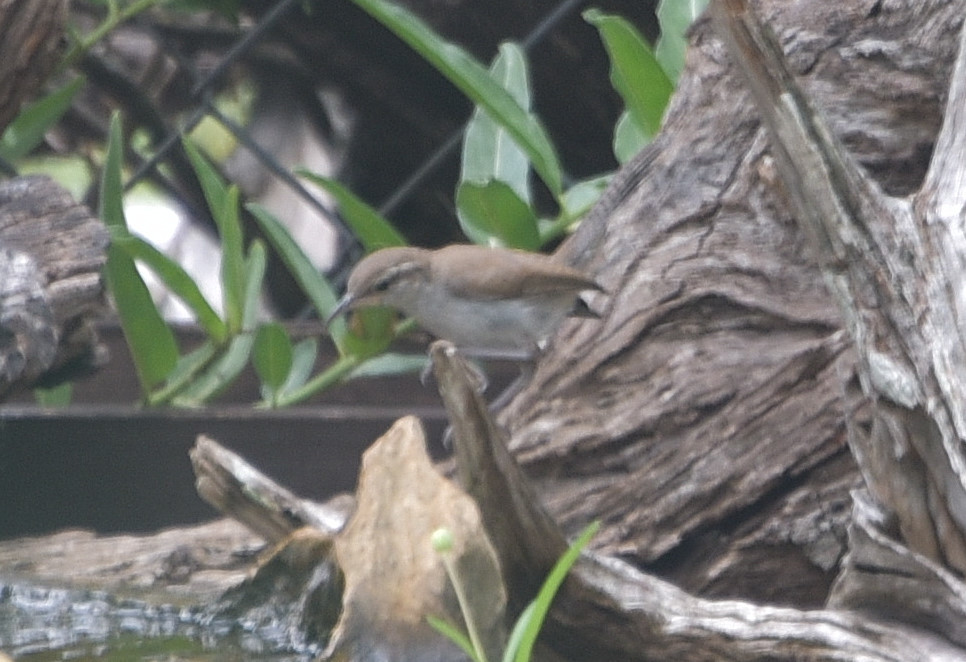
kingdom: Animalia
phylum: Chordata
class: Aves
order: Passeriformes
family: Troglodytidae
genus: Thryomanes
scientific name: Thryomanes bewickii
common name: Bewick's wren
